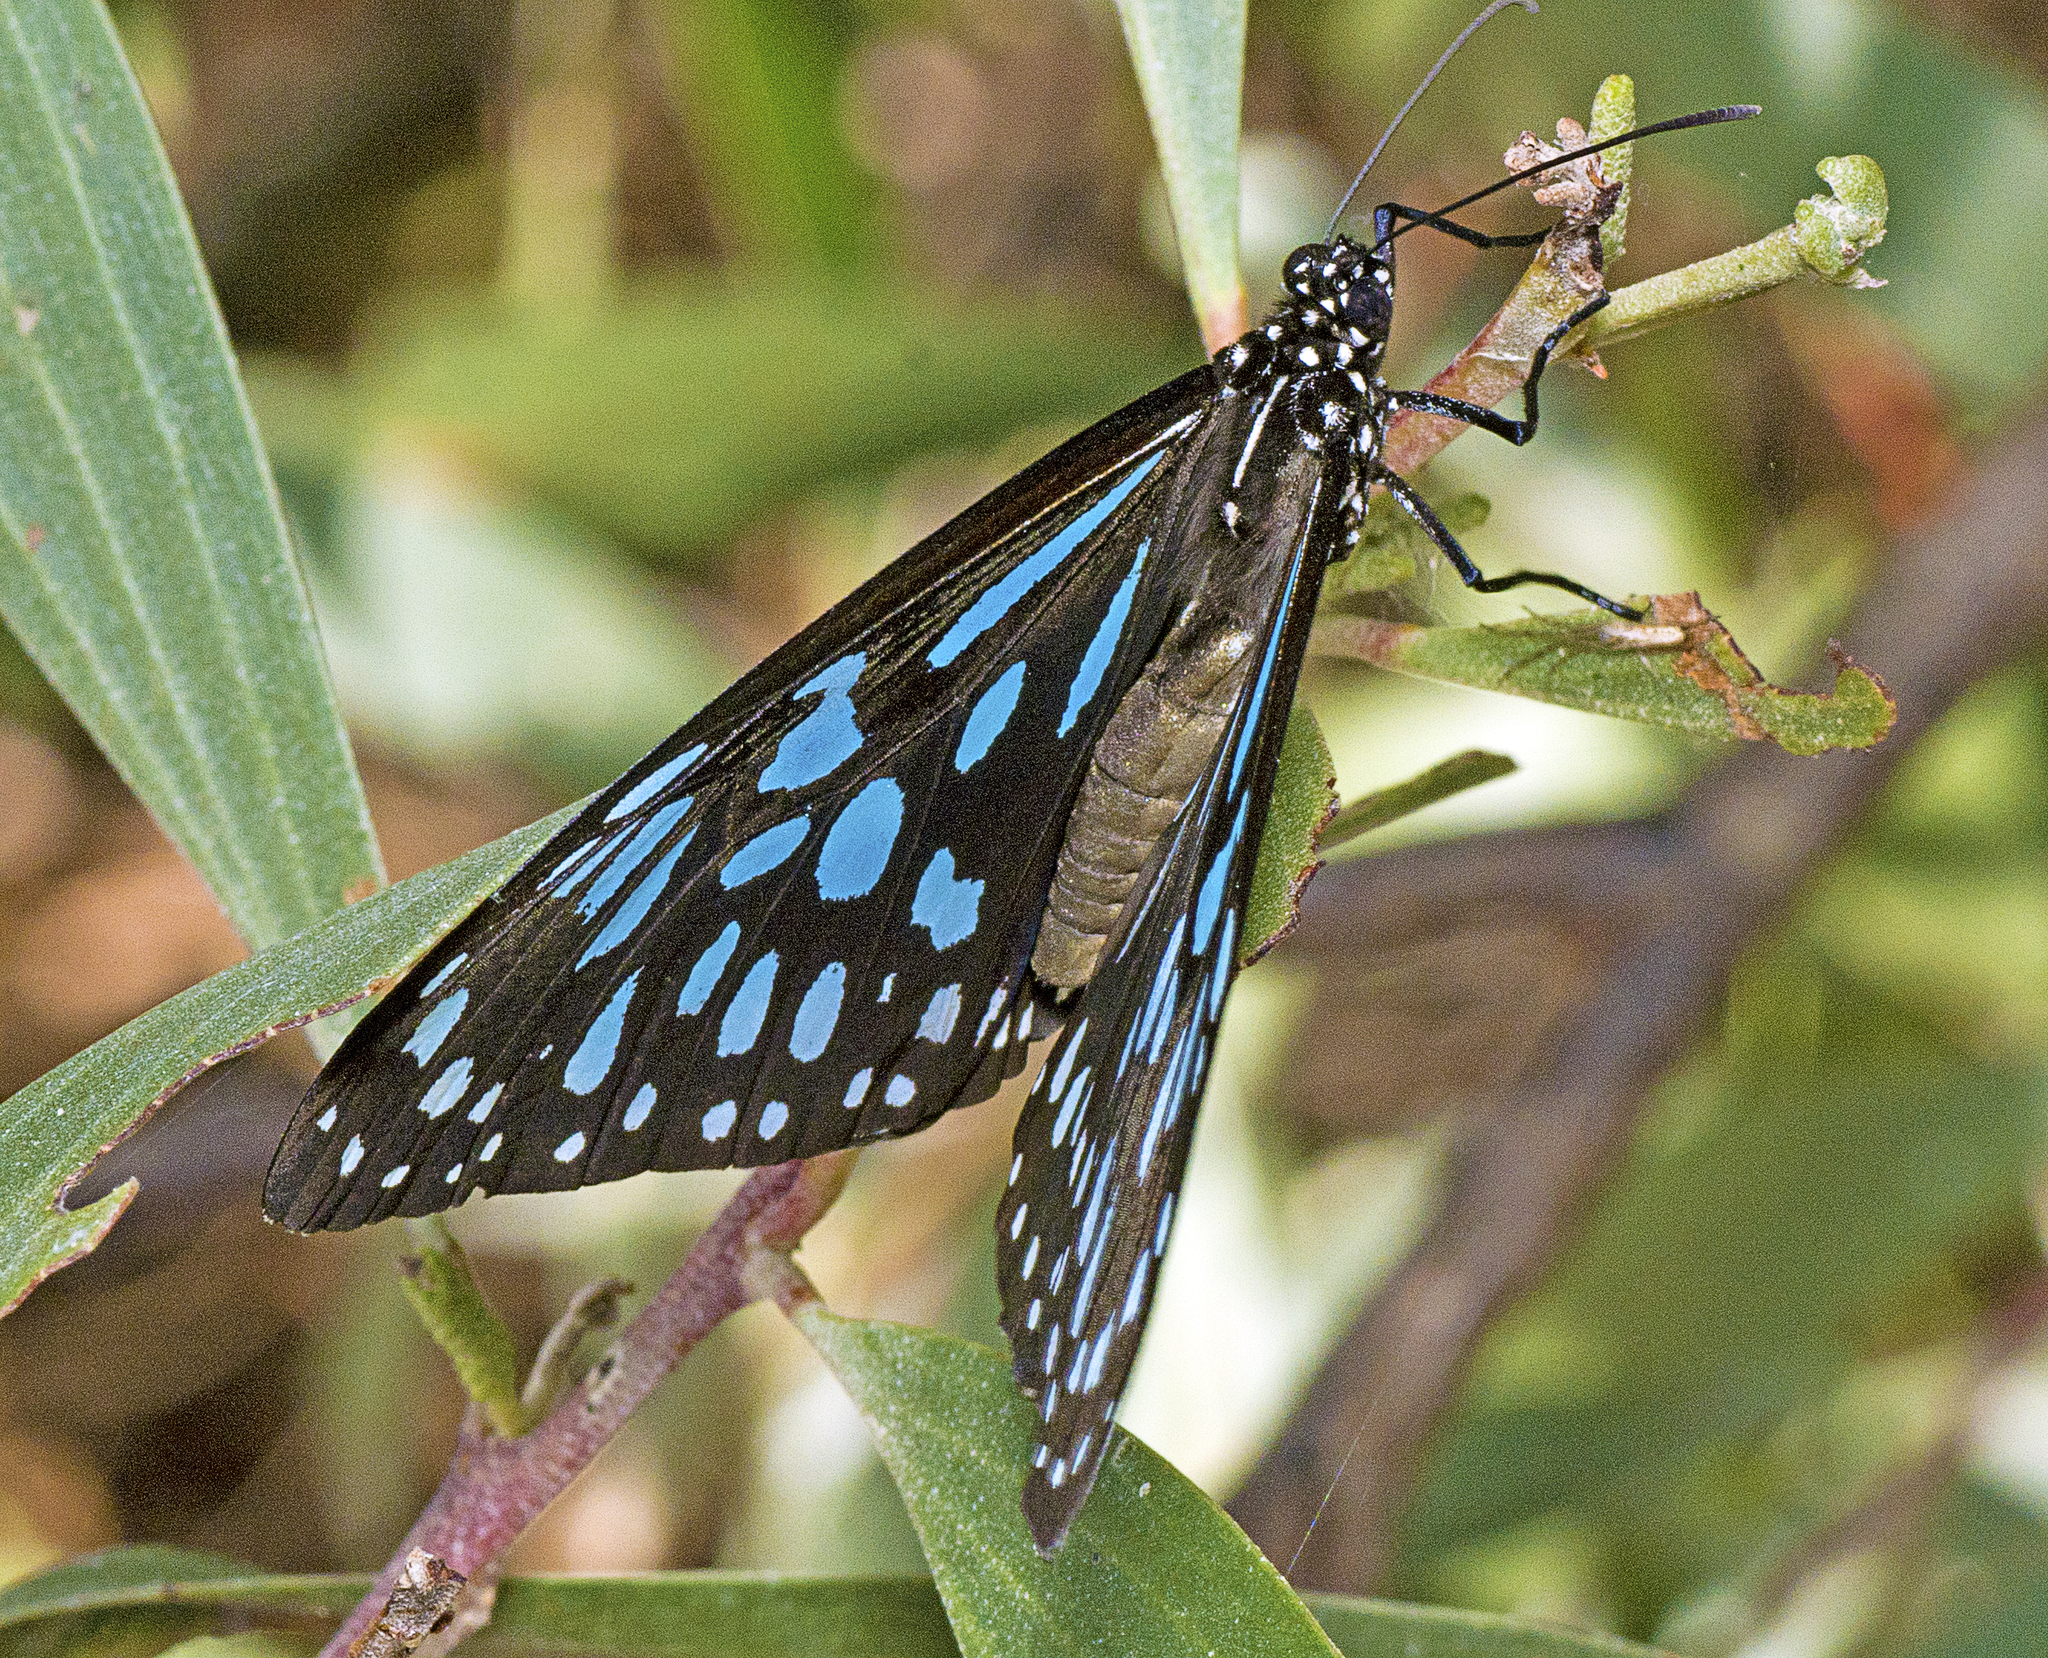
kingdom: Animalia
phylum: Arthropoda
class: Insecta
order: Lepidoptera
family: Nymphalidae
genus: Tirumala
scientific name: Tirumala hamata
